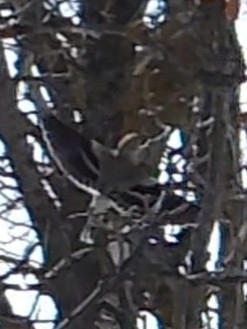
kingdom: Animalia
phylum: Chordata
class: Aves
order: Passeriformes
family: Fringillidae
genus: Spinus
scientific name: Spinus tristis
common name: American goldfinch
